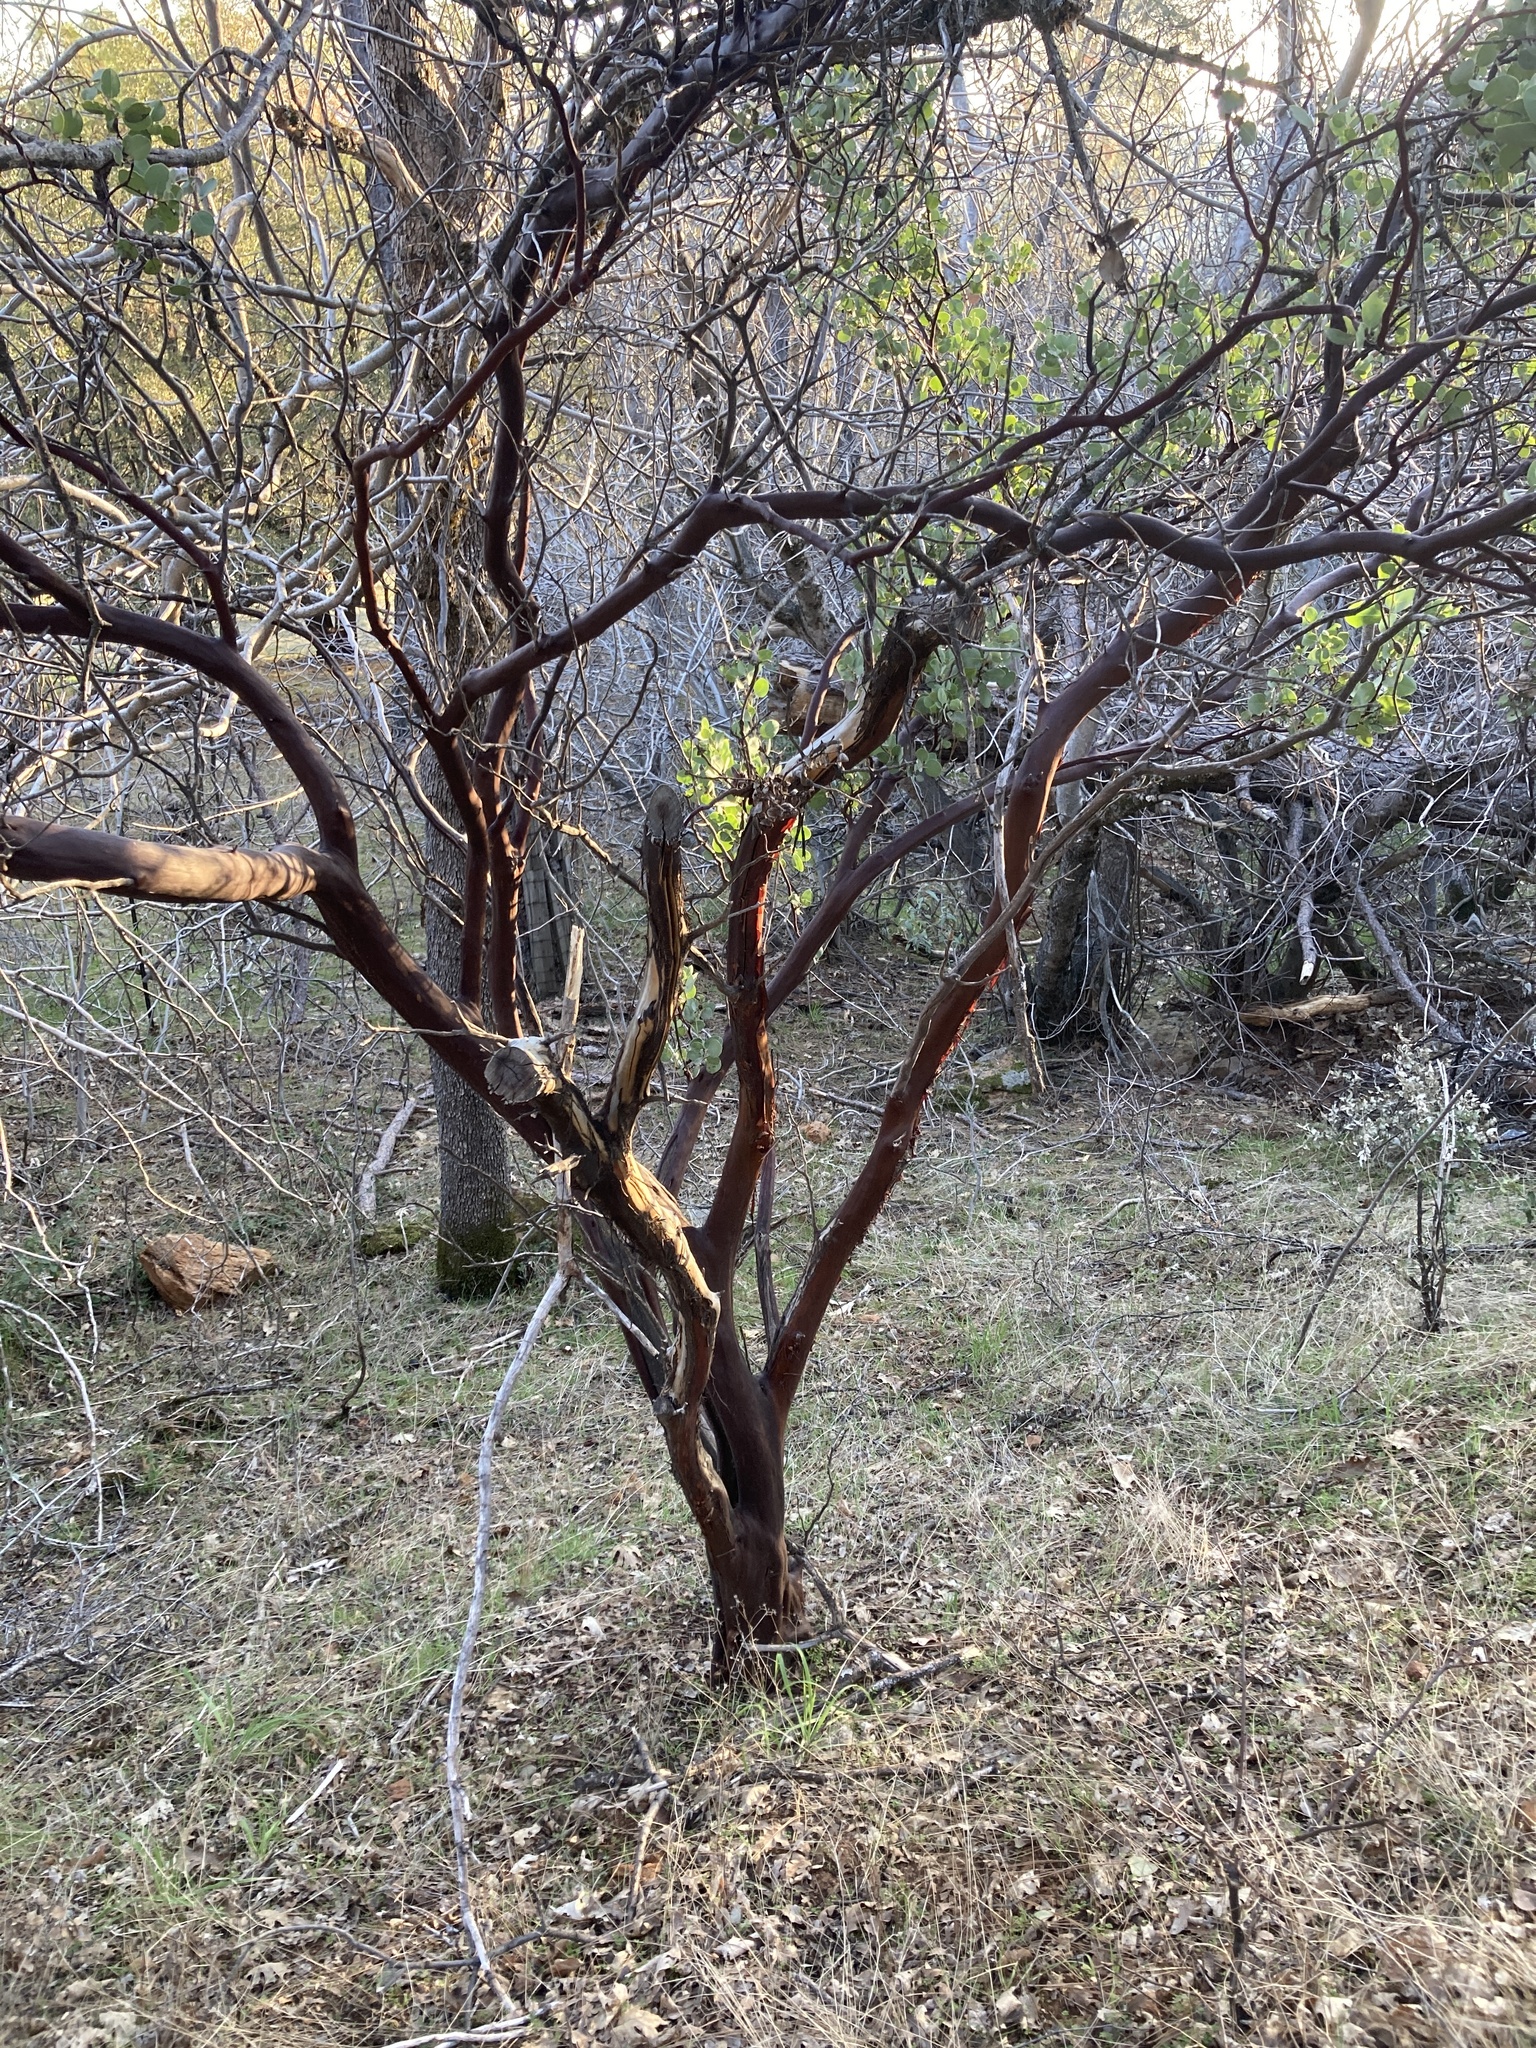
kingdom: Plantae
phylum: Tracheophyta
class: Magnoliopsida
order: Ericales
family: Ericaceae
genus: Arctostaphylos
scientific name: Arctostaphylos viscida
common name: White-leaf manzanita
